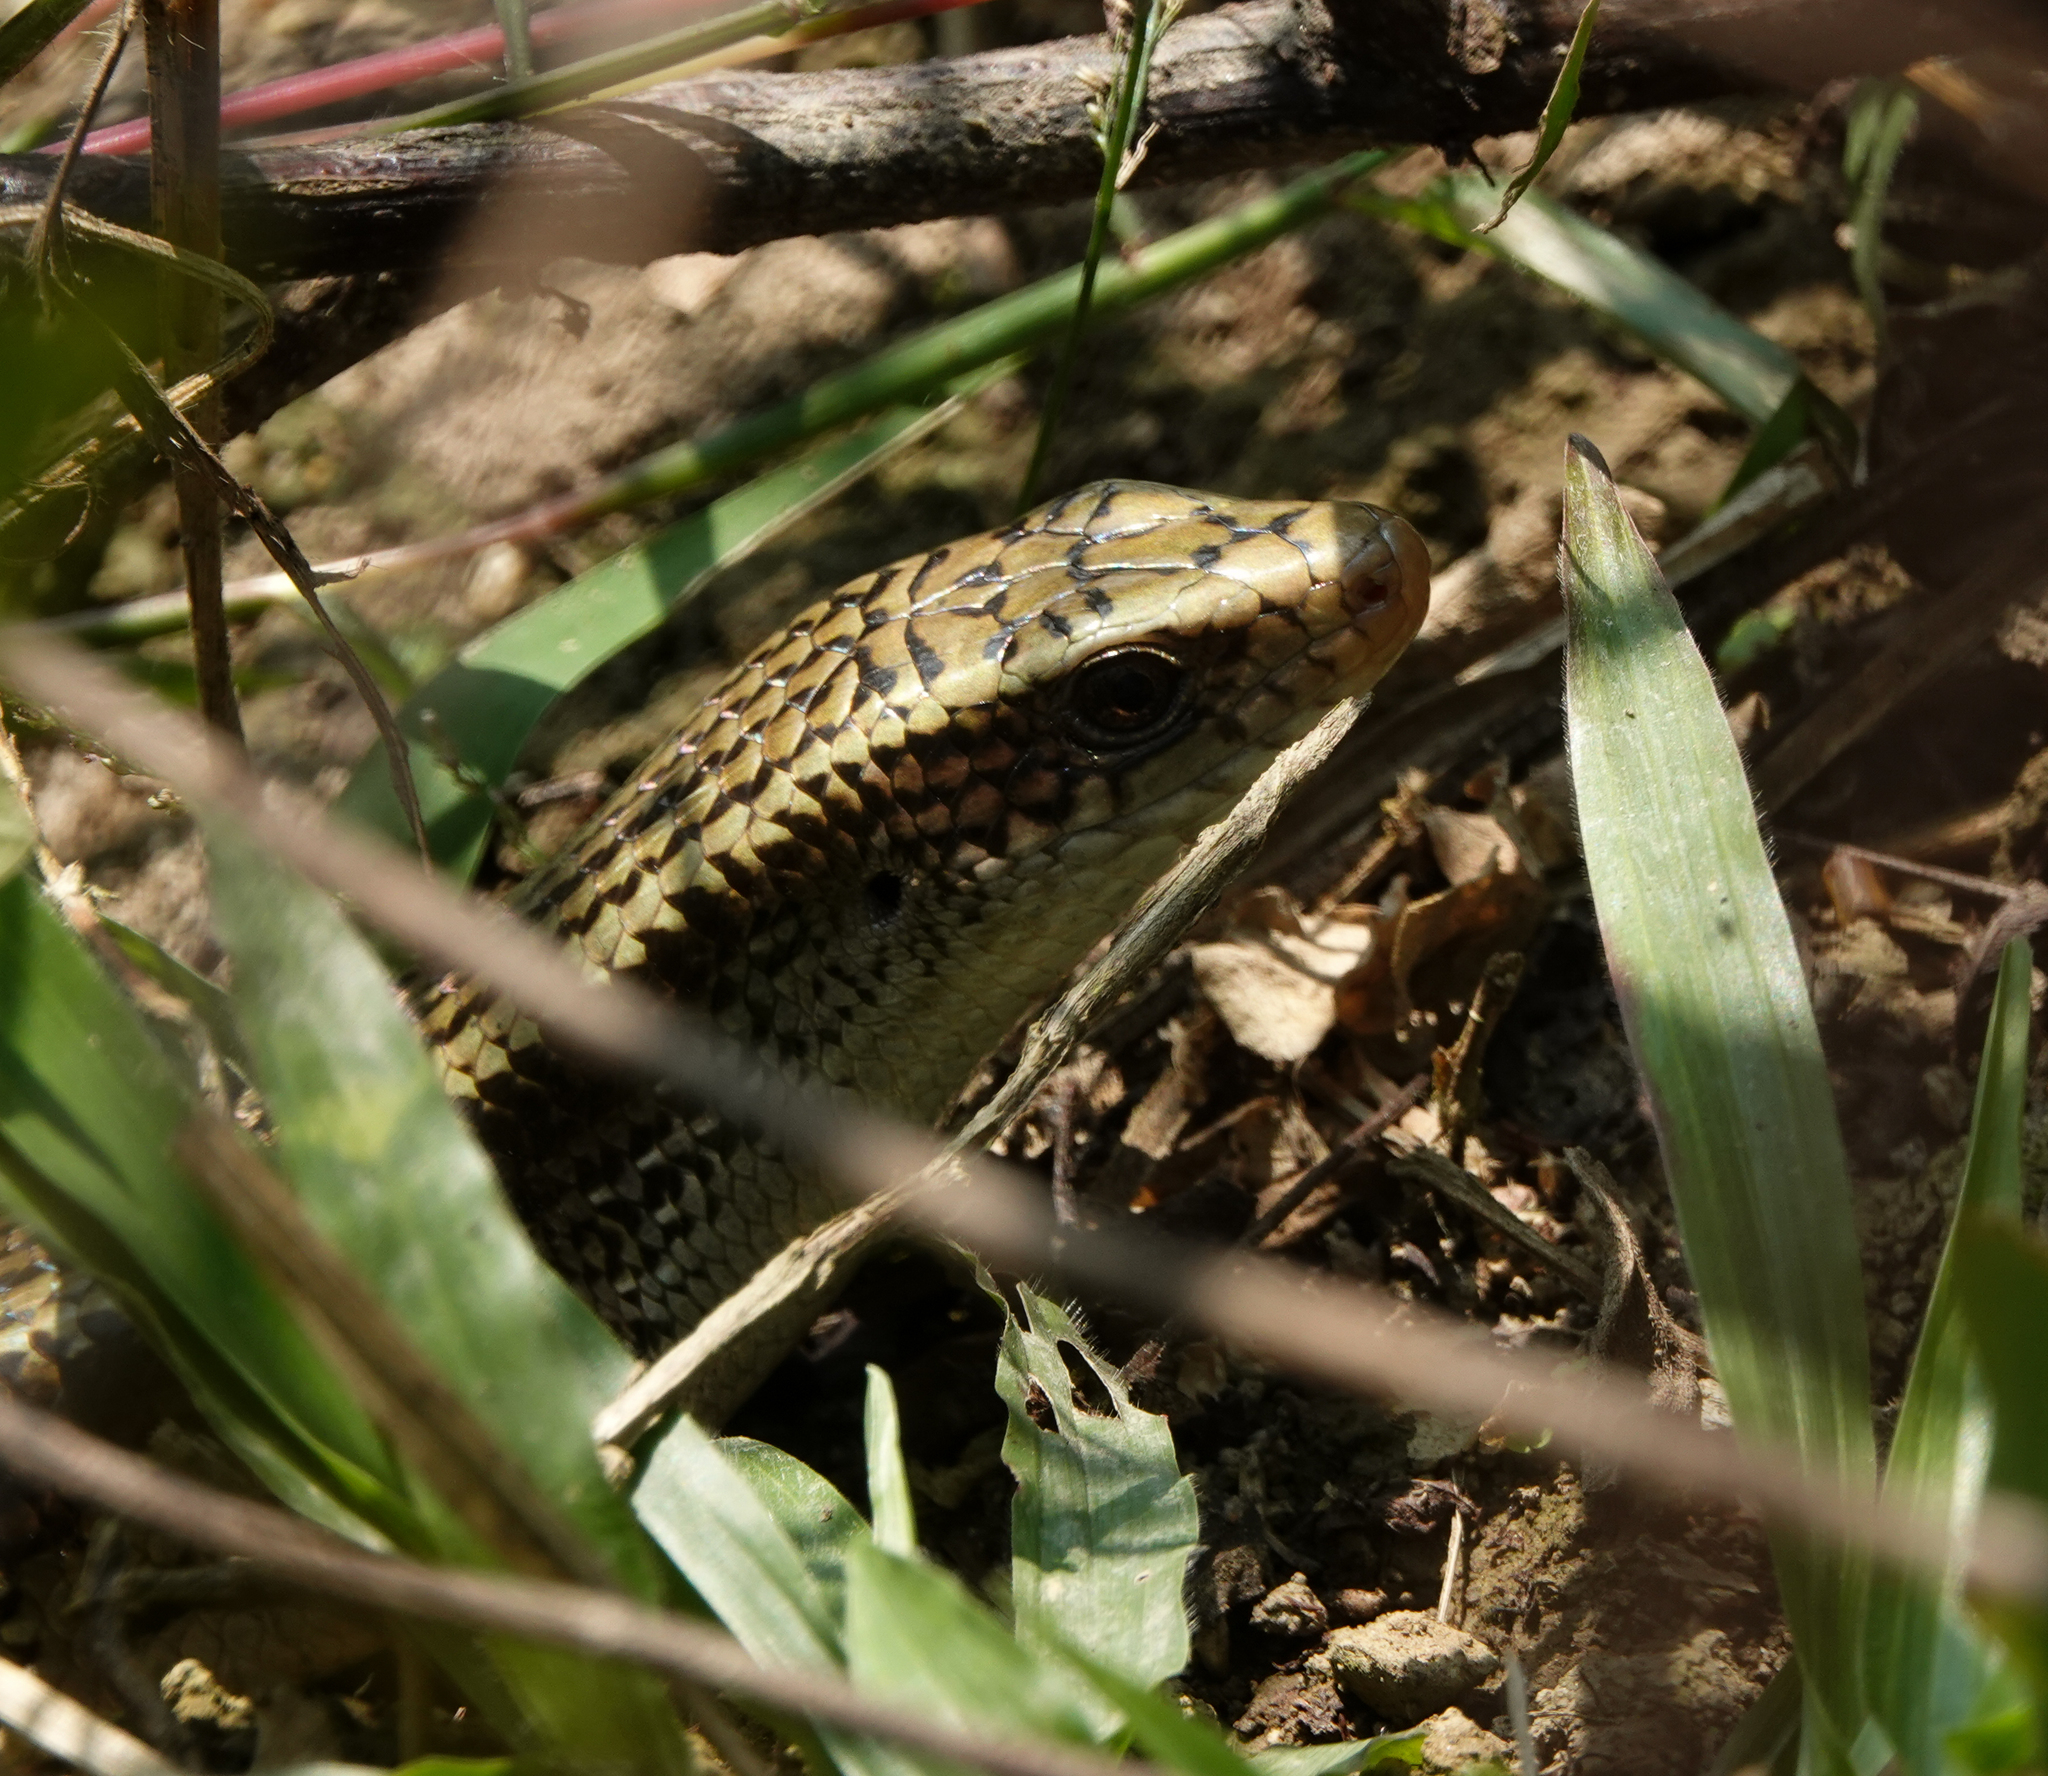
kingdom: Animalia
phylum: Chordata
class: Squamata
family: Scincidae
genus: Eutropis
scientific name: Eutropis multifasciata
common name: Common mabuya
